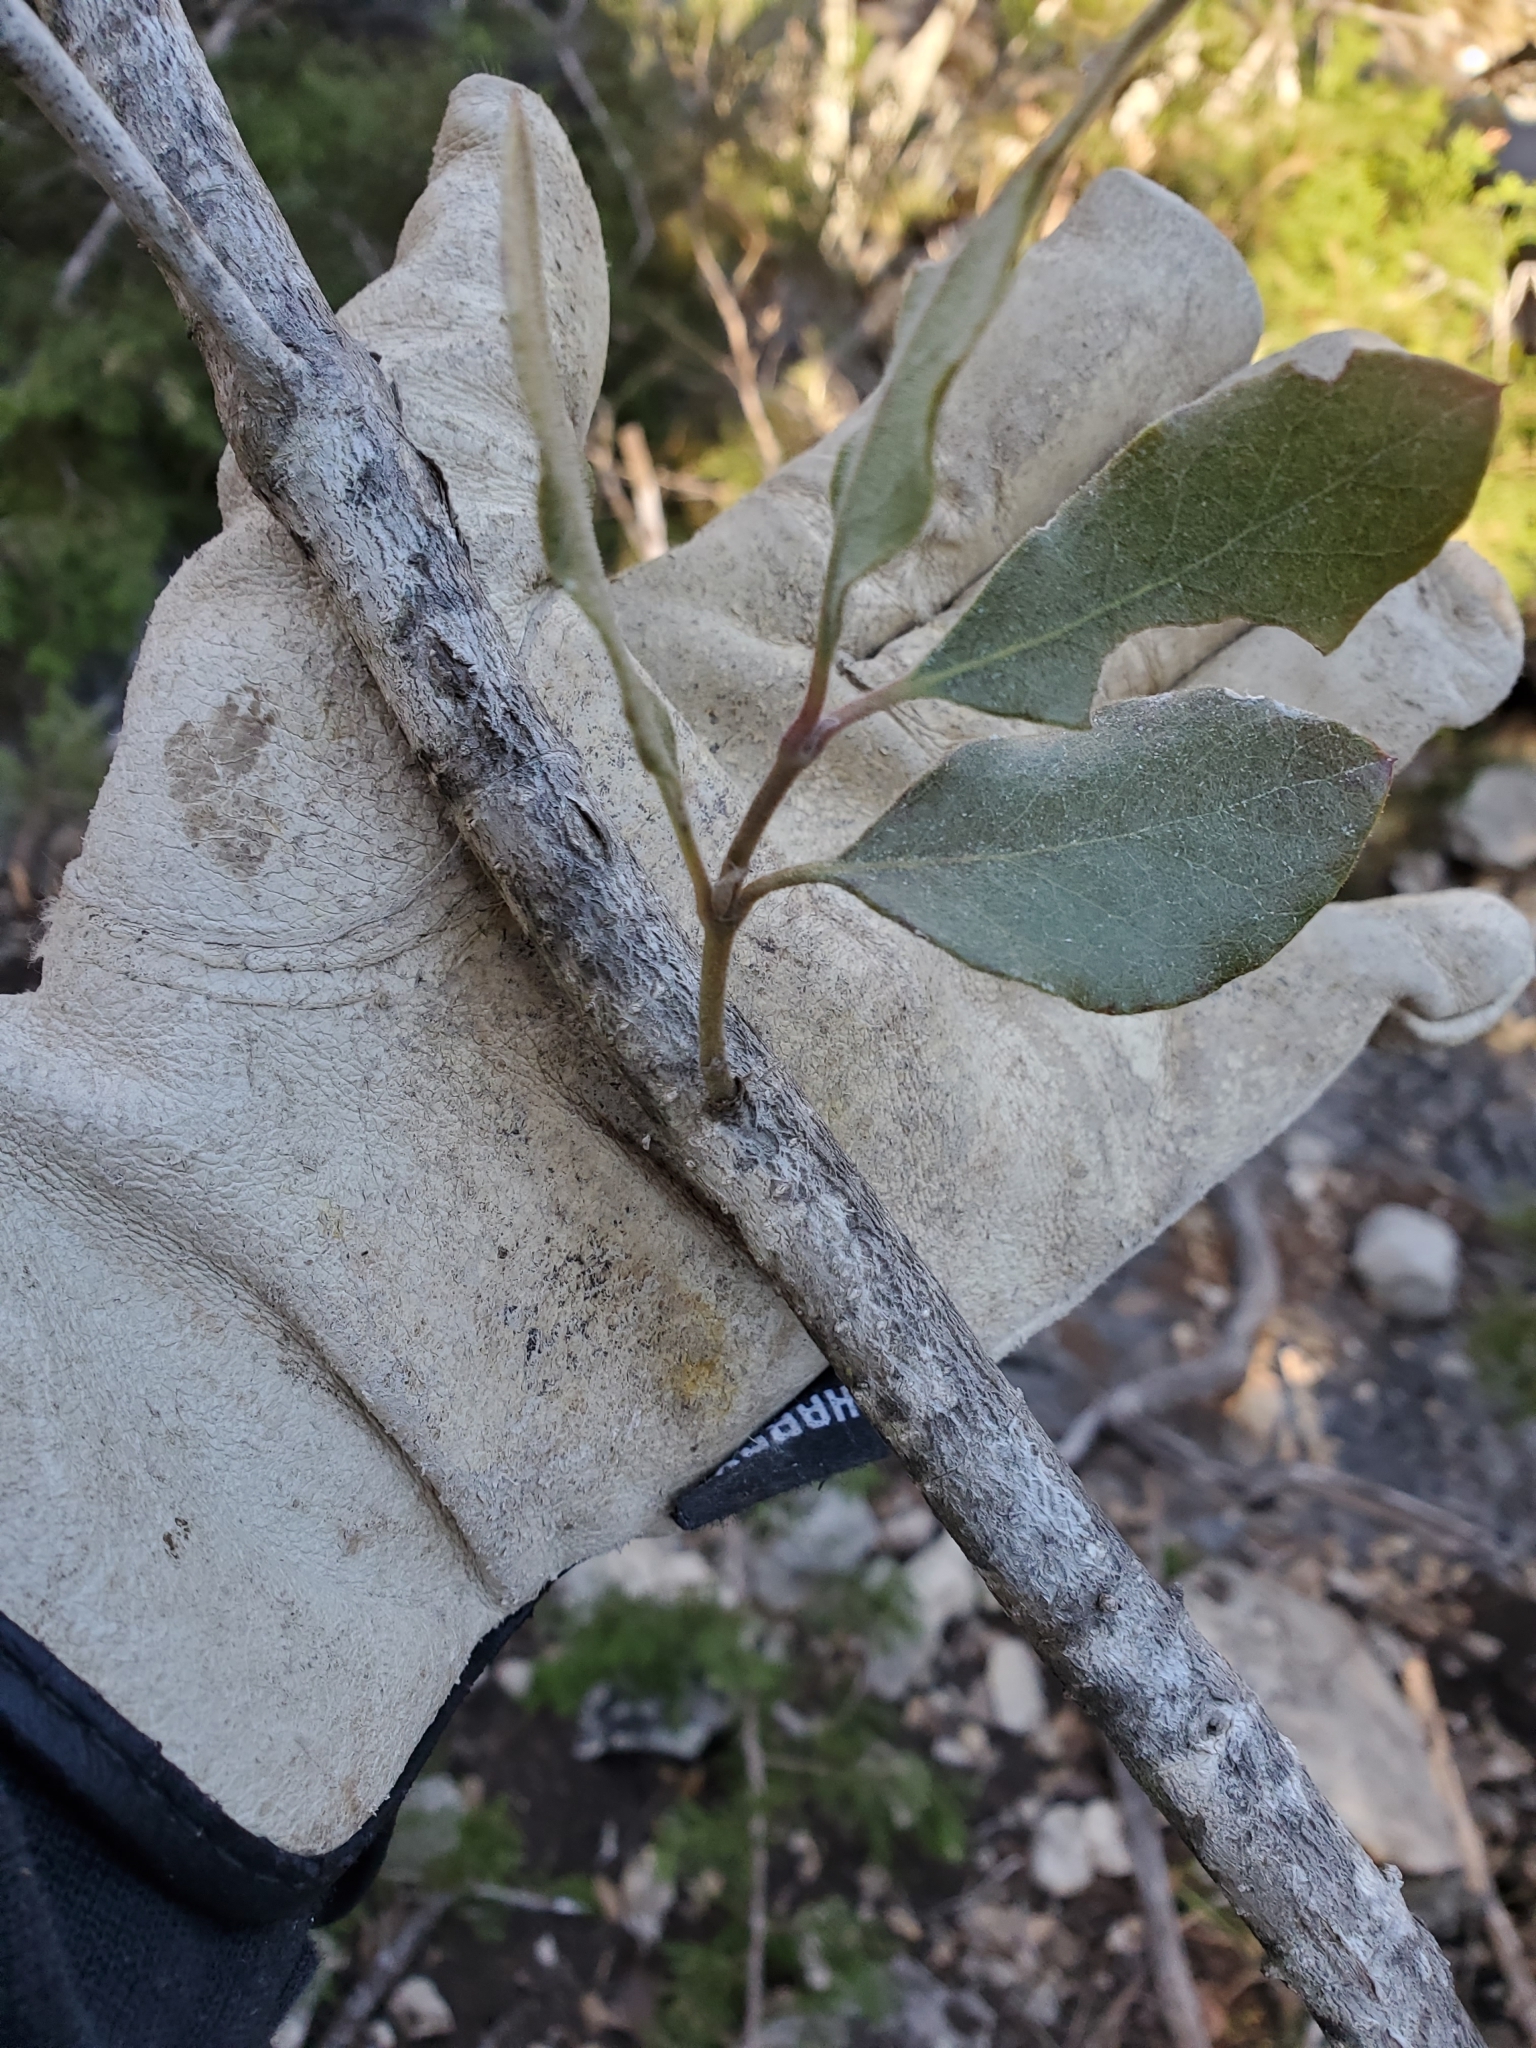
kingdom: Plantae
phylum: Tracheophyta
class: Magnoliopsida
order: Garryales
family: Garryaceae
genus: Garrya
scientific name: Garrya lindheimeri
